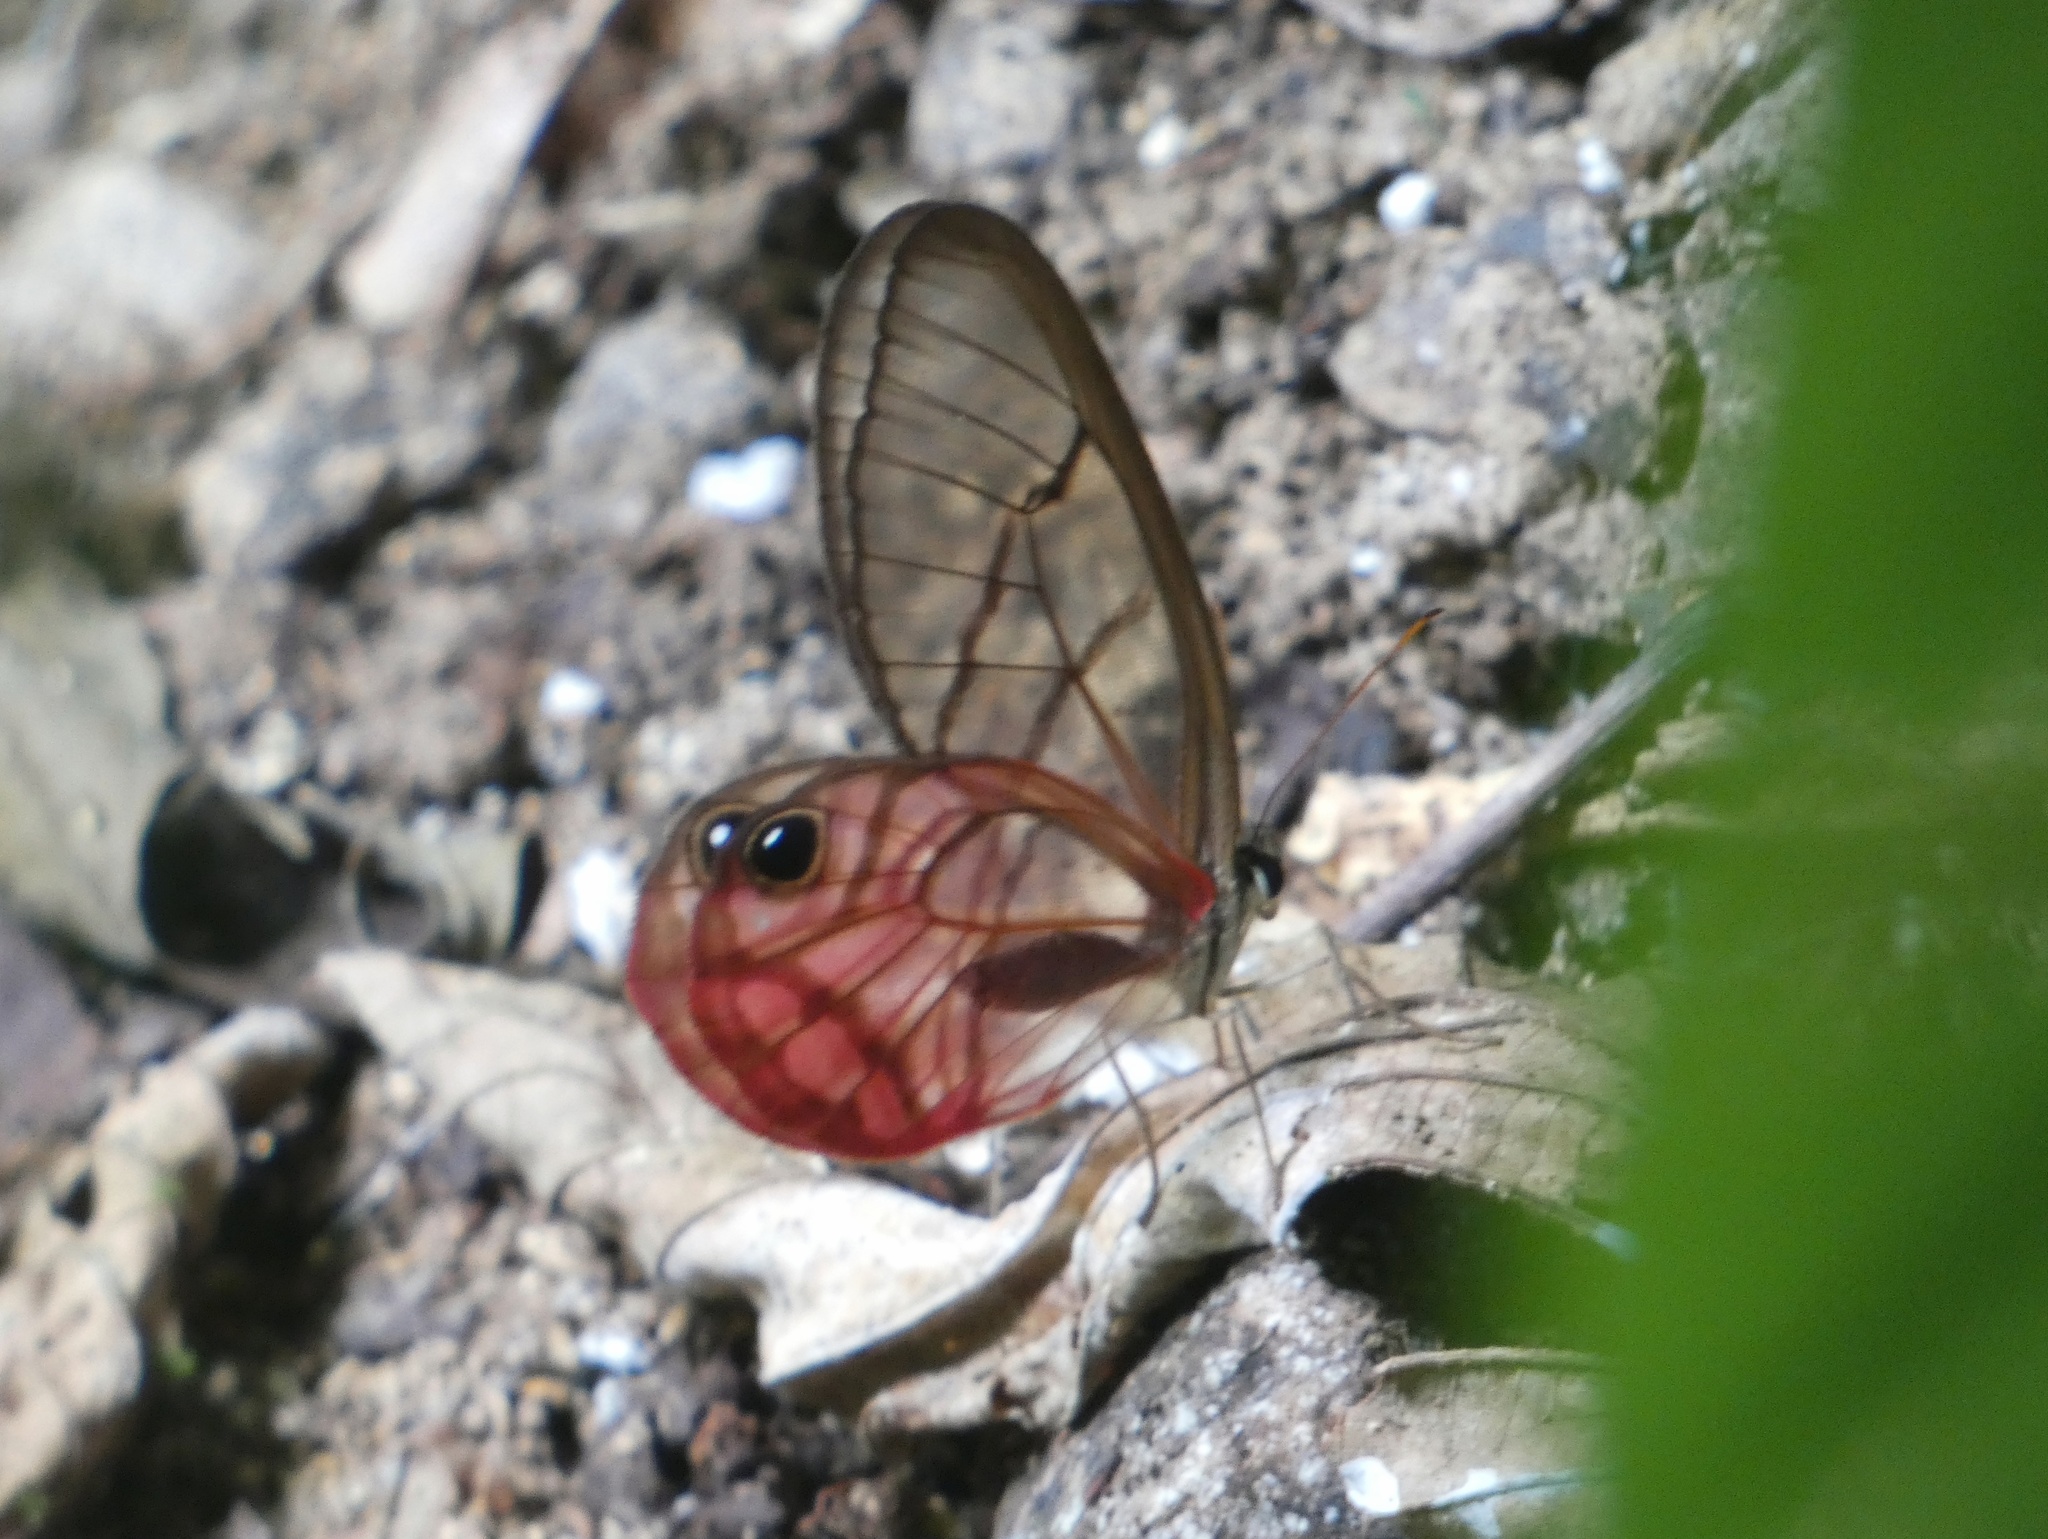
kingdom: Animalia
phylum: Arthropoda
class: Insecta
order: Lepidoptera
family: Nymphalidae
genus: Cithaerias
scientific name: Cithaerias pireta
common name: Rusted clearwing-satyr
